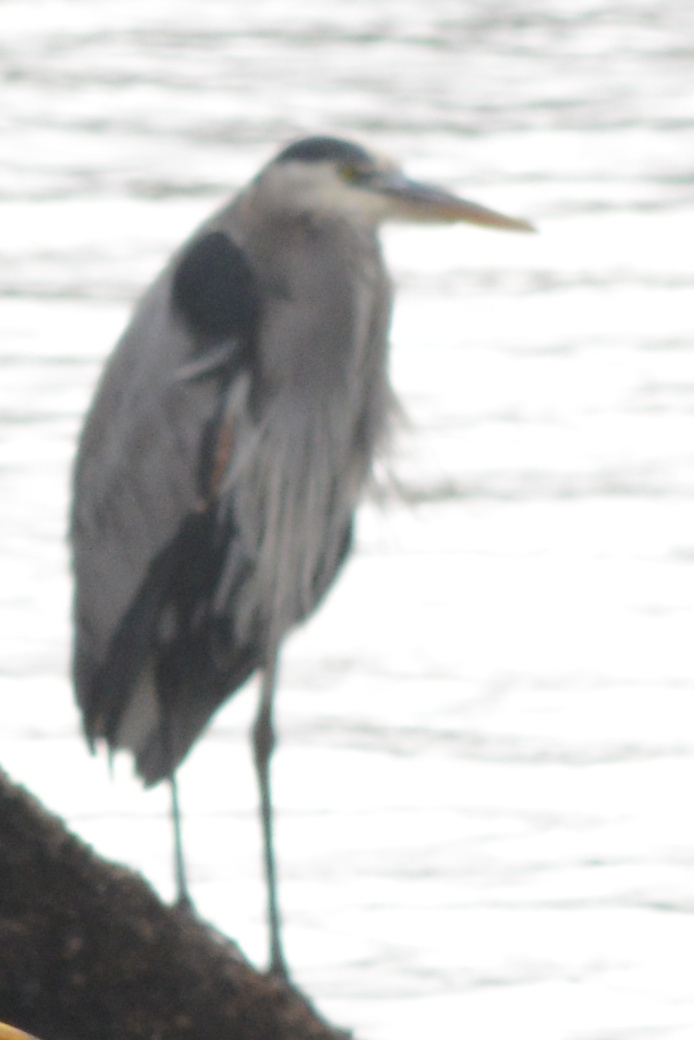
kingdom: Animalia
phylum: Chordata
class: Aves
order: Pelecaniformes
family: Ardeidae
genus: Ardea
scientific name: Ardea herodias
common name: Great blue heron
